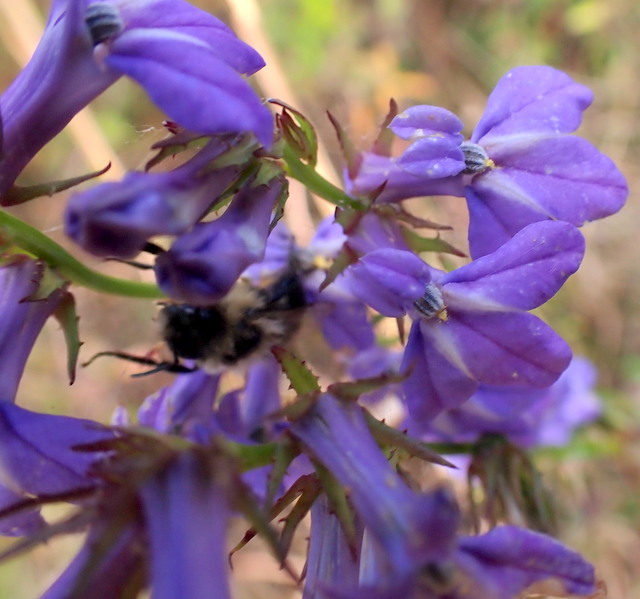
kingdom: Animalia
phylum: Arthropoda
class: Insecta
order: Hymenoptera
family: Apidae
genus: Bombus
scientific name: Bombus impatiens
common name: Common eastern bumble bee
